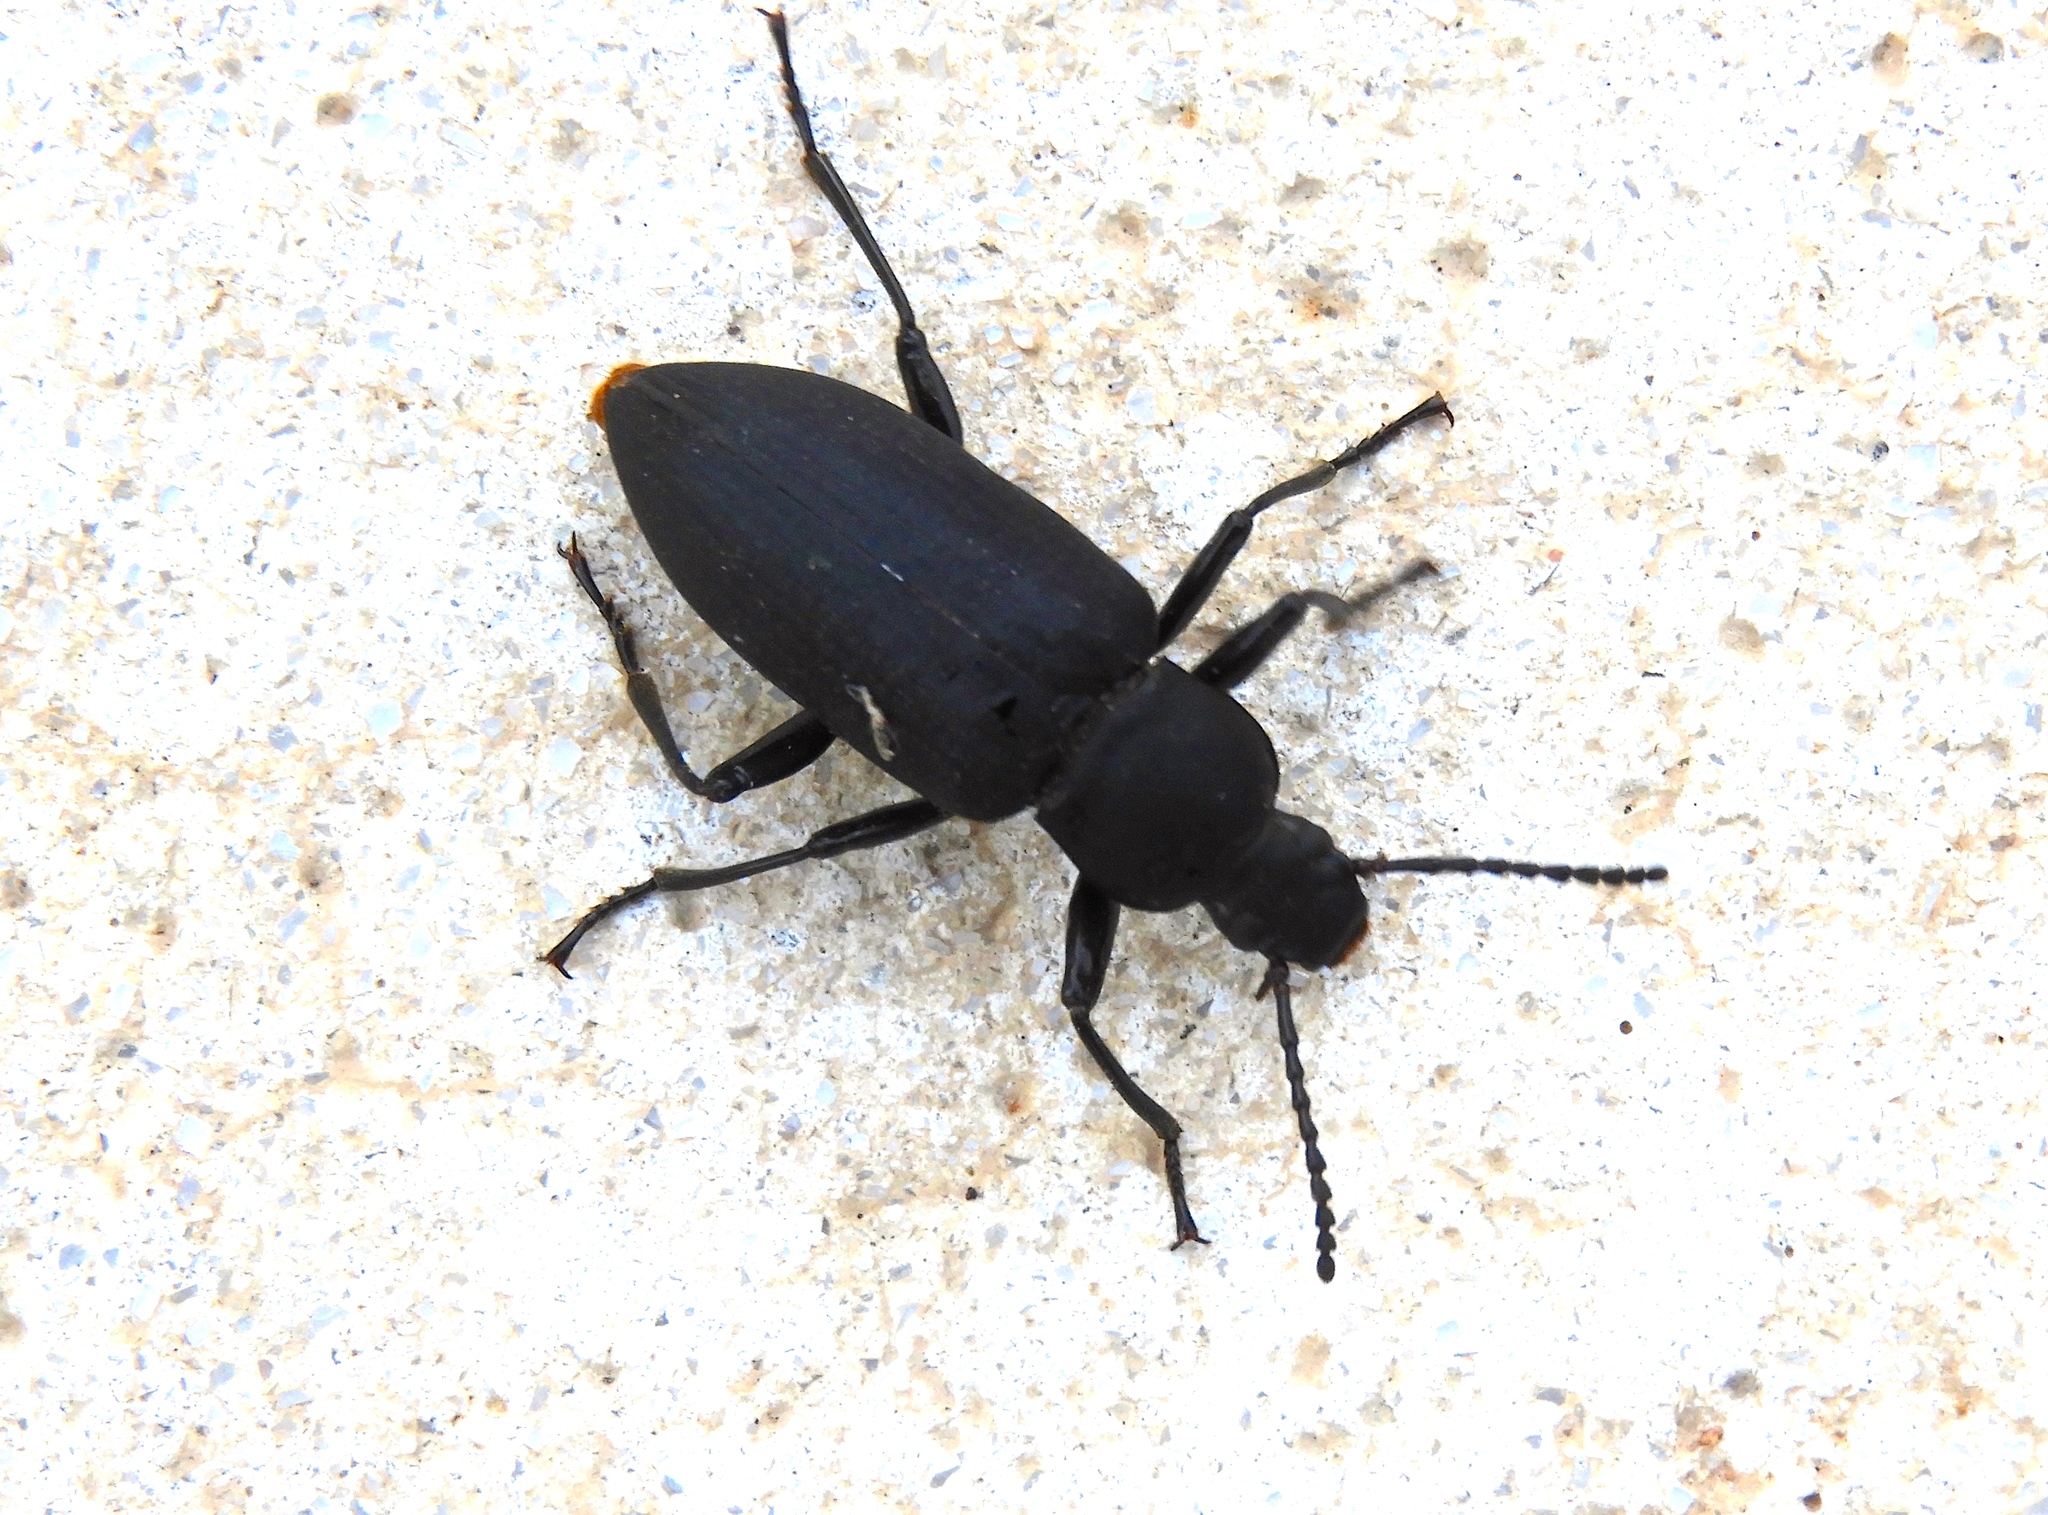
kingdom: Animalia
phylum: Arthropoda
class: Insecta
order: Coleoptera
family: Tenebrionidae
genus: Zophobas
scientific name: Zophobas
